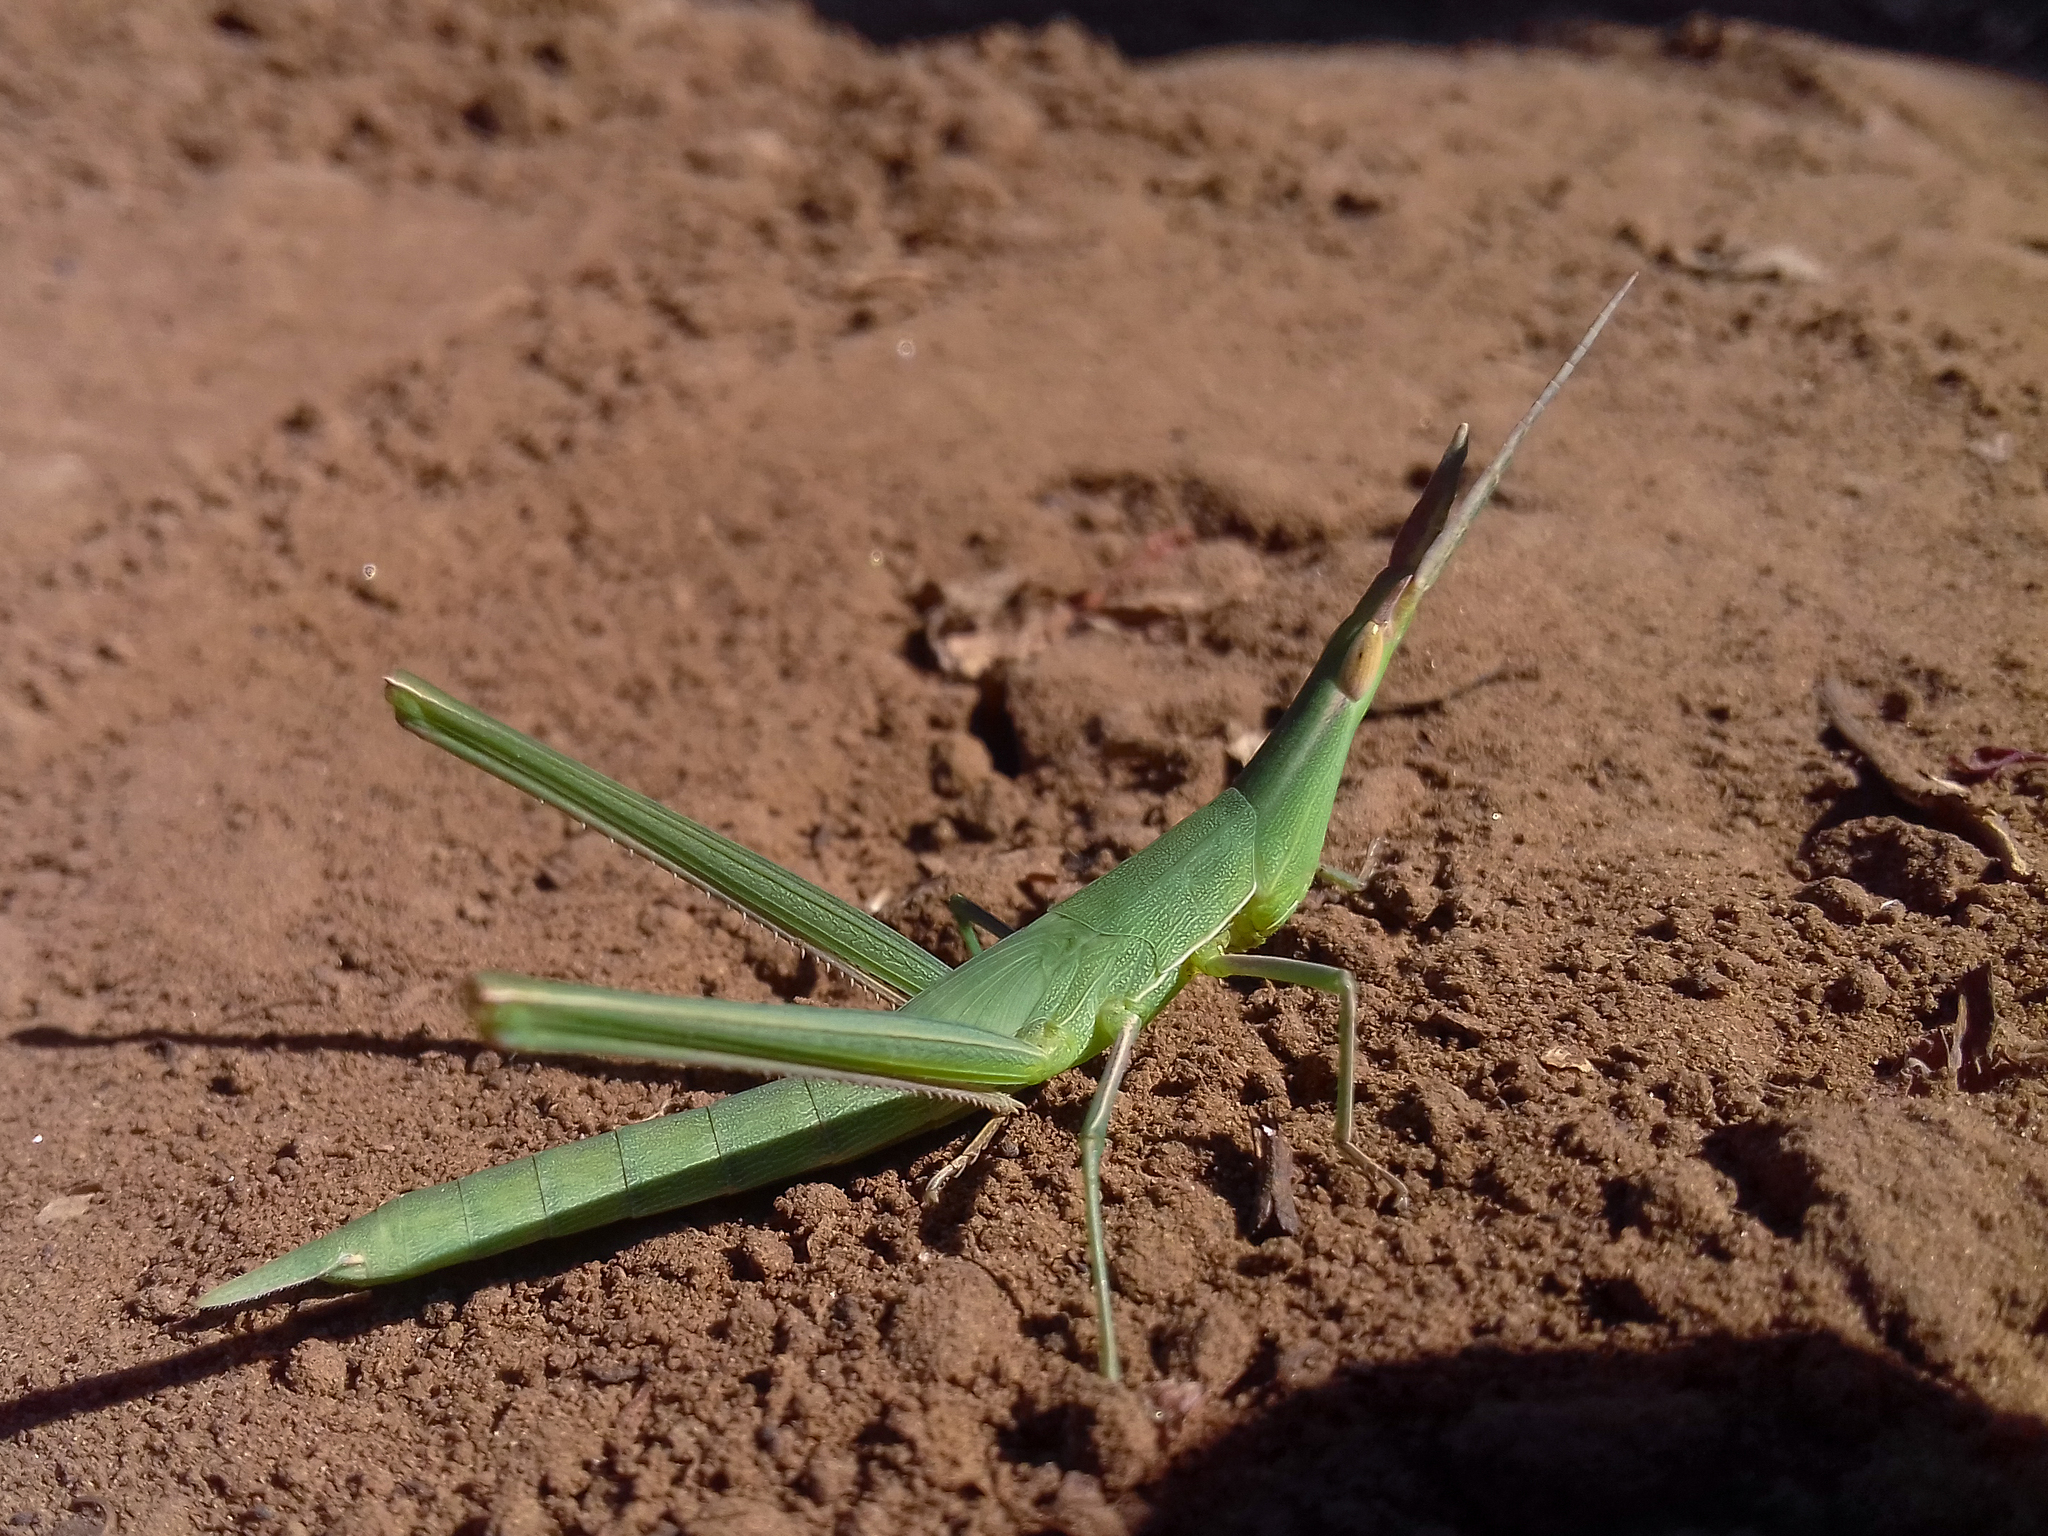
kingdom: Animalia
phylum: Arthropoda
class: Insecta
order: Orthoptera
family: Acrididae
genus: Acrida
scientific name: Acrida ungarica
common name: Common cone-headed grasshopper
